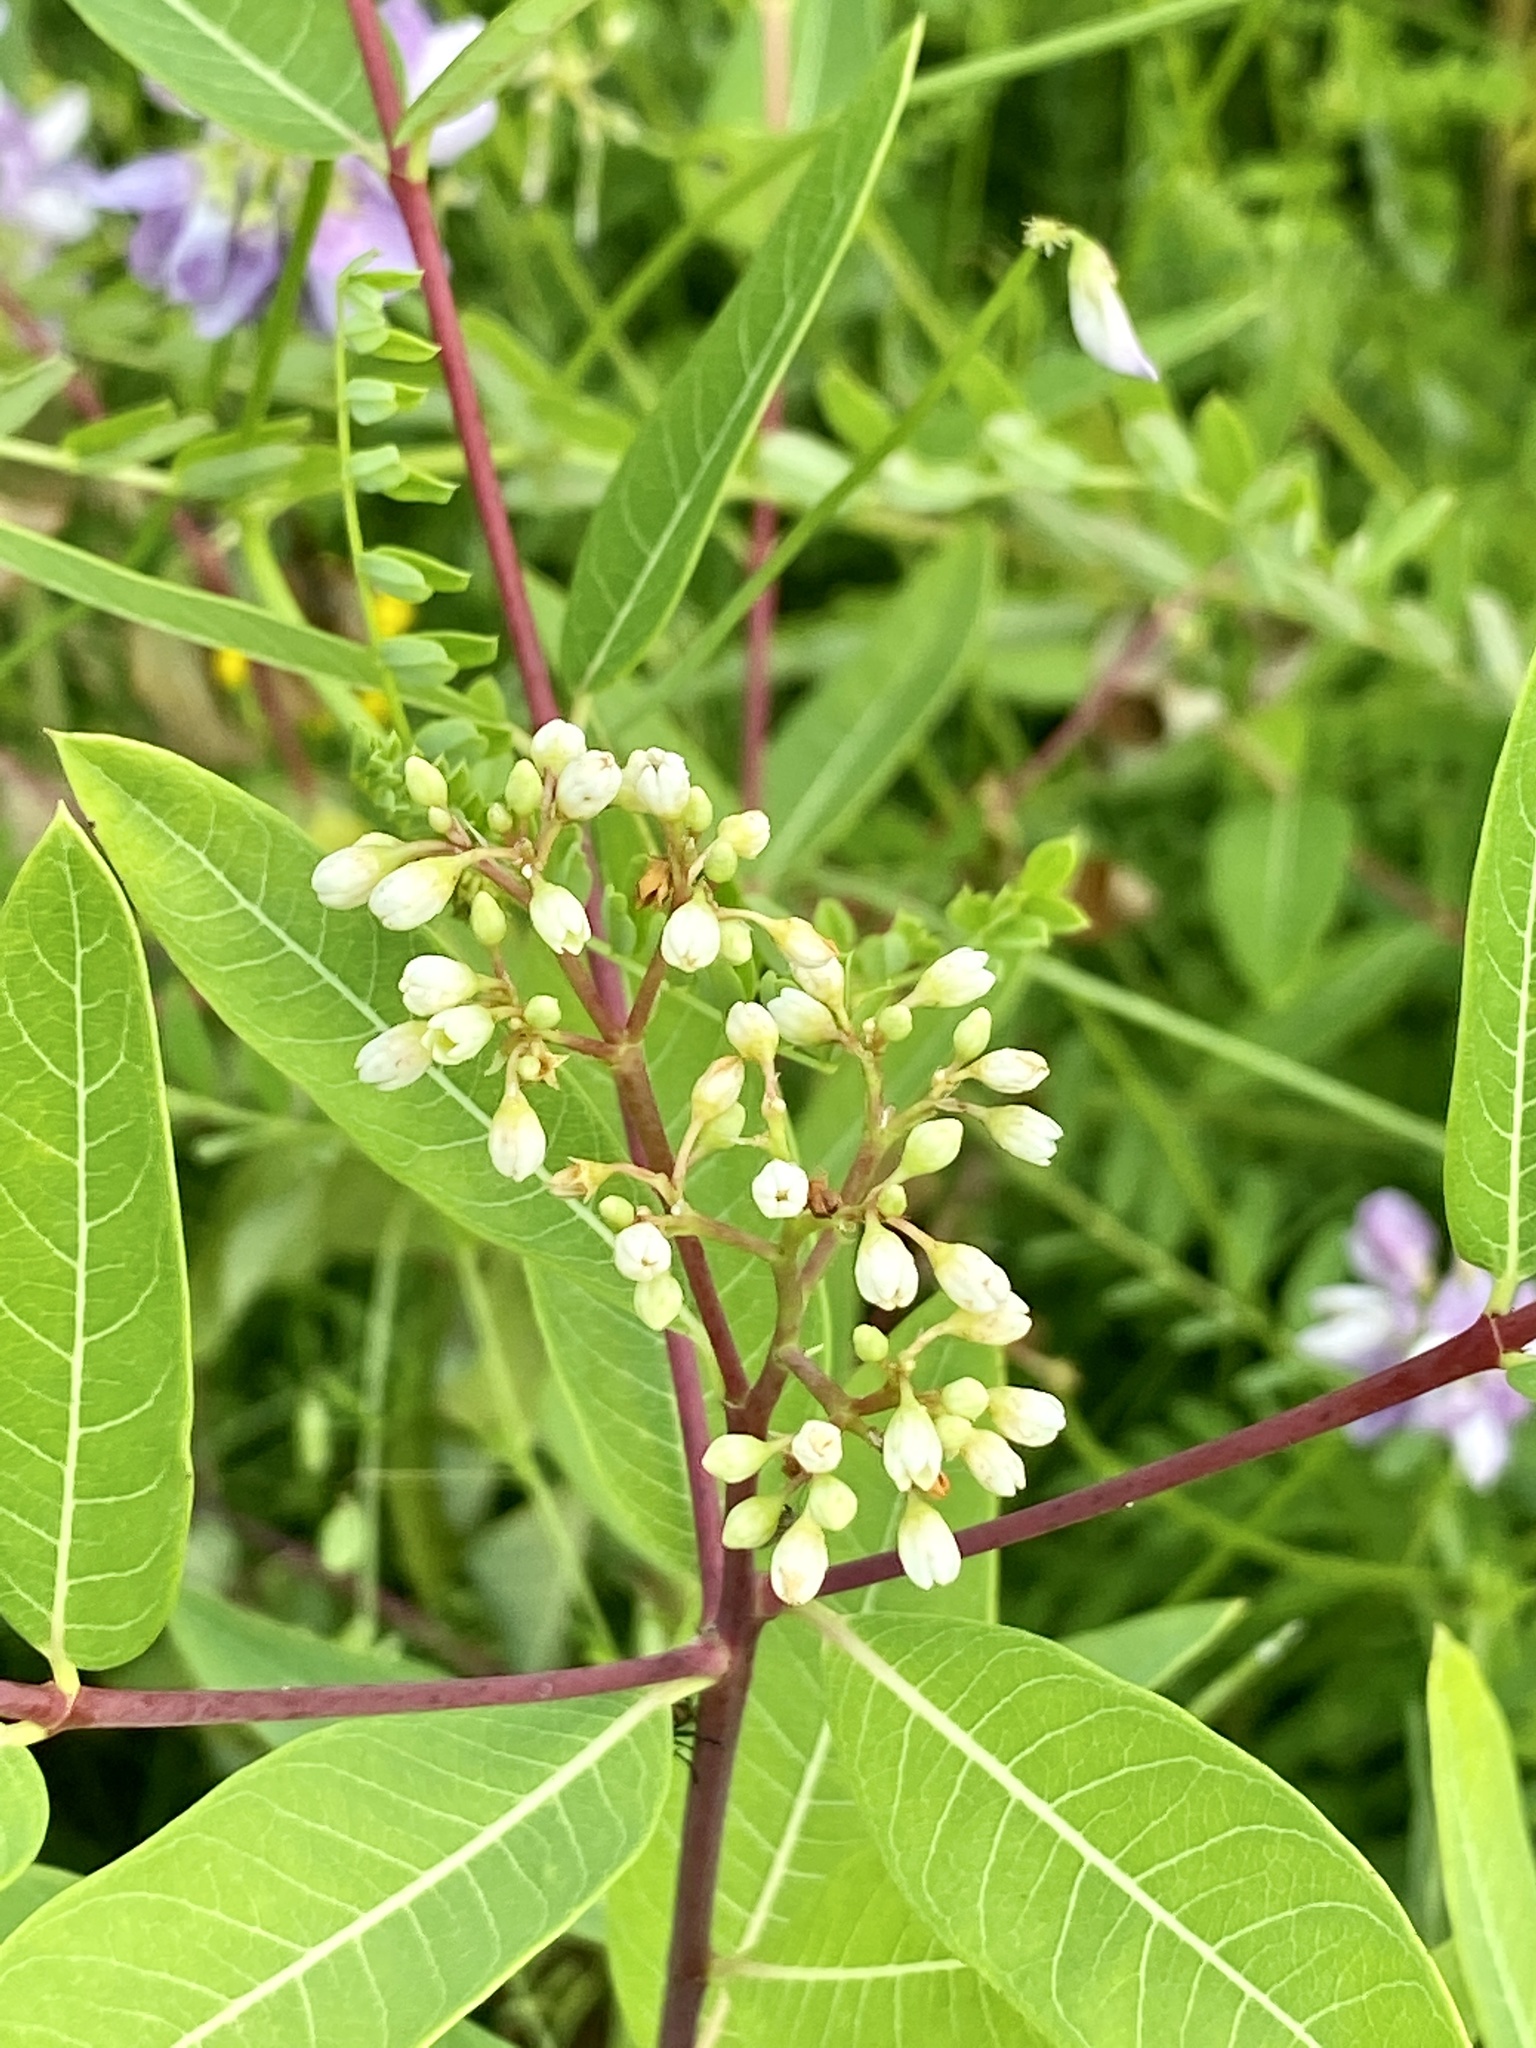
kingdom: Plantae
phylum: Tracheophyta
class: Magnoliopsida
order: Gentianales
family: Apocynaceae
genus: Apocynum
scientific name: Apocynum cannabinum
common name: Hemp dogbane
